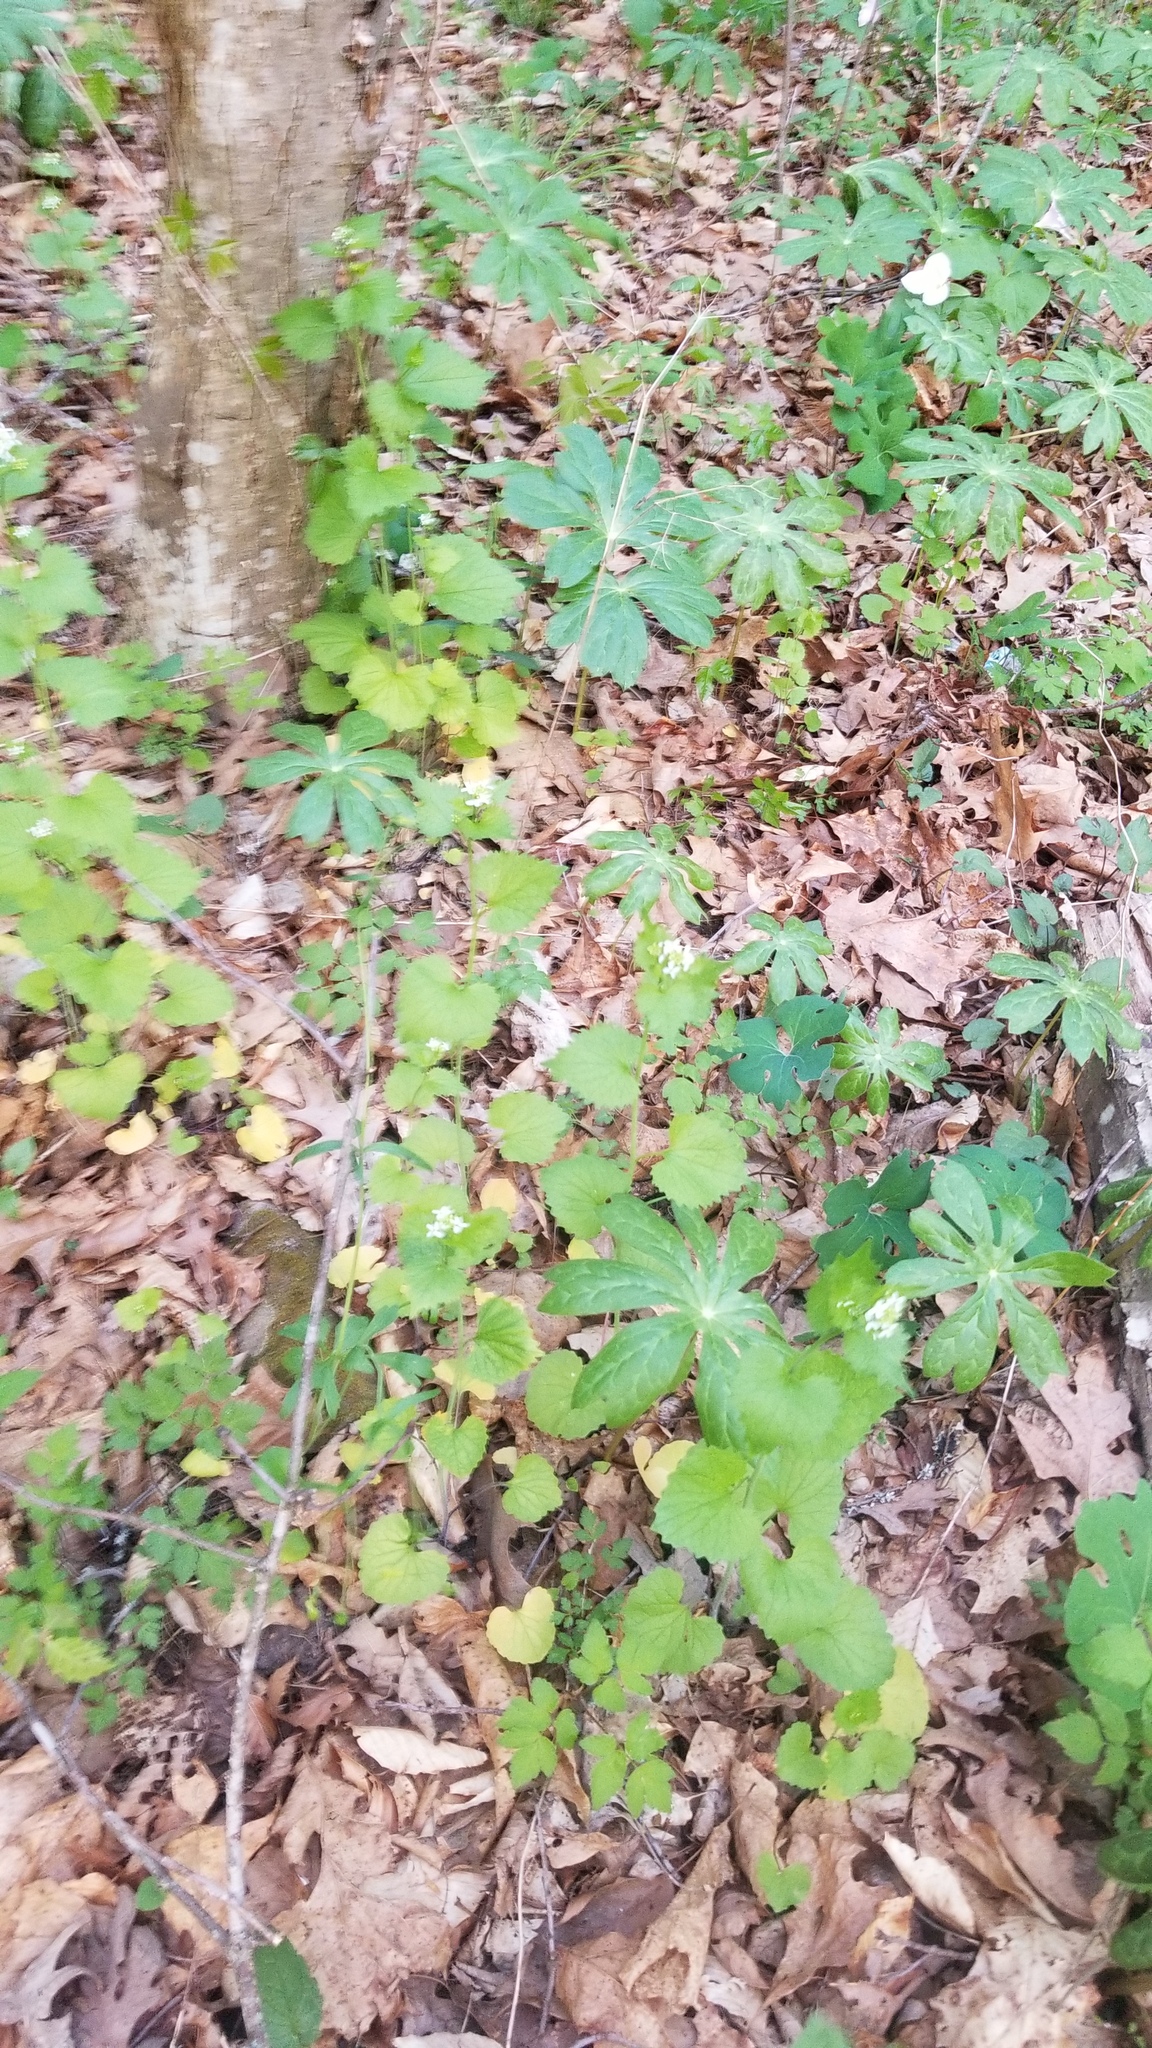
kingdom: Plantae
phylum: Tracheophyta
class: Magnoliopsida
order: Brassicales
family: Brassicaceae
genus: Alliaria
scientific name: Alliaria petiolata
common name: Garlic mustard
